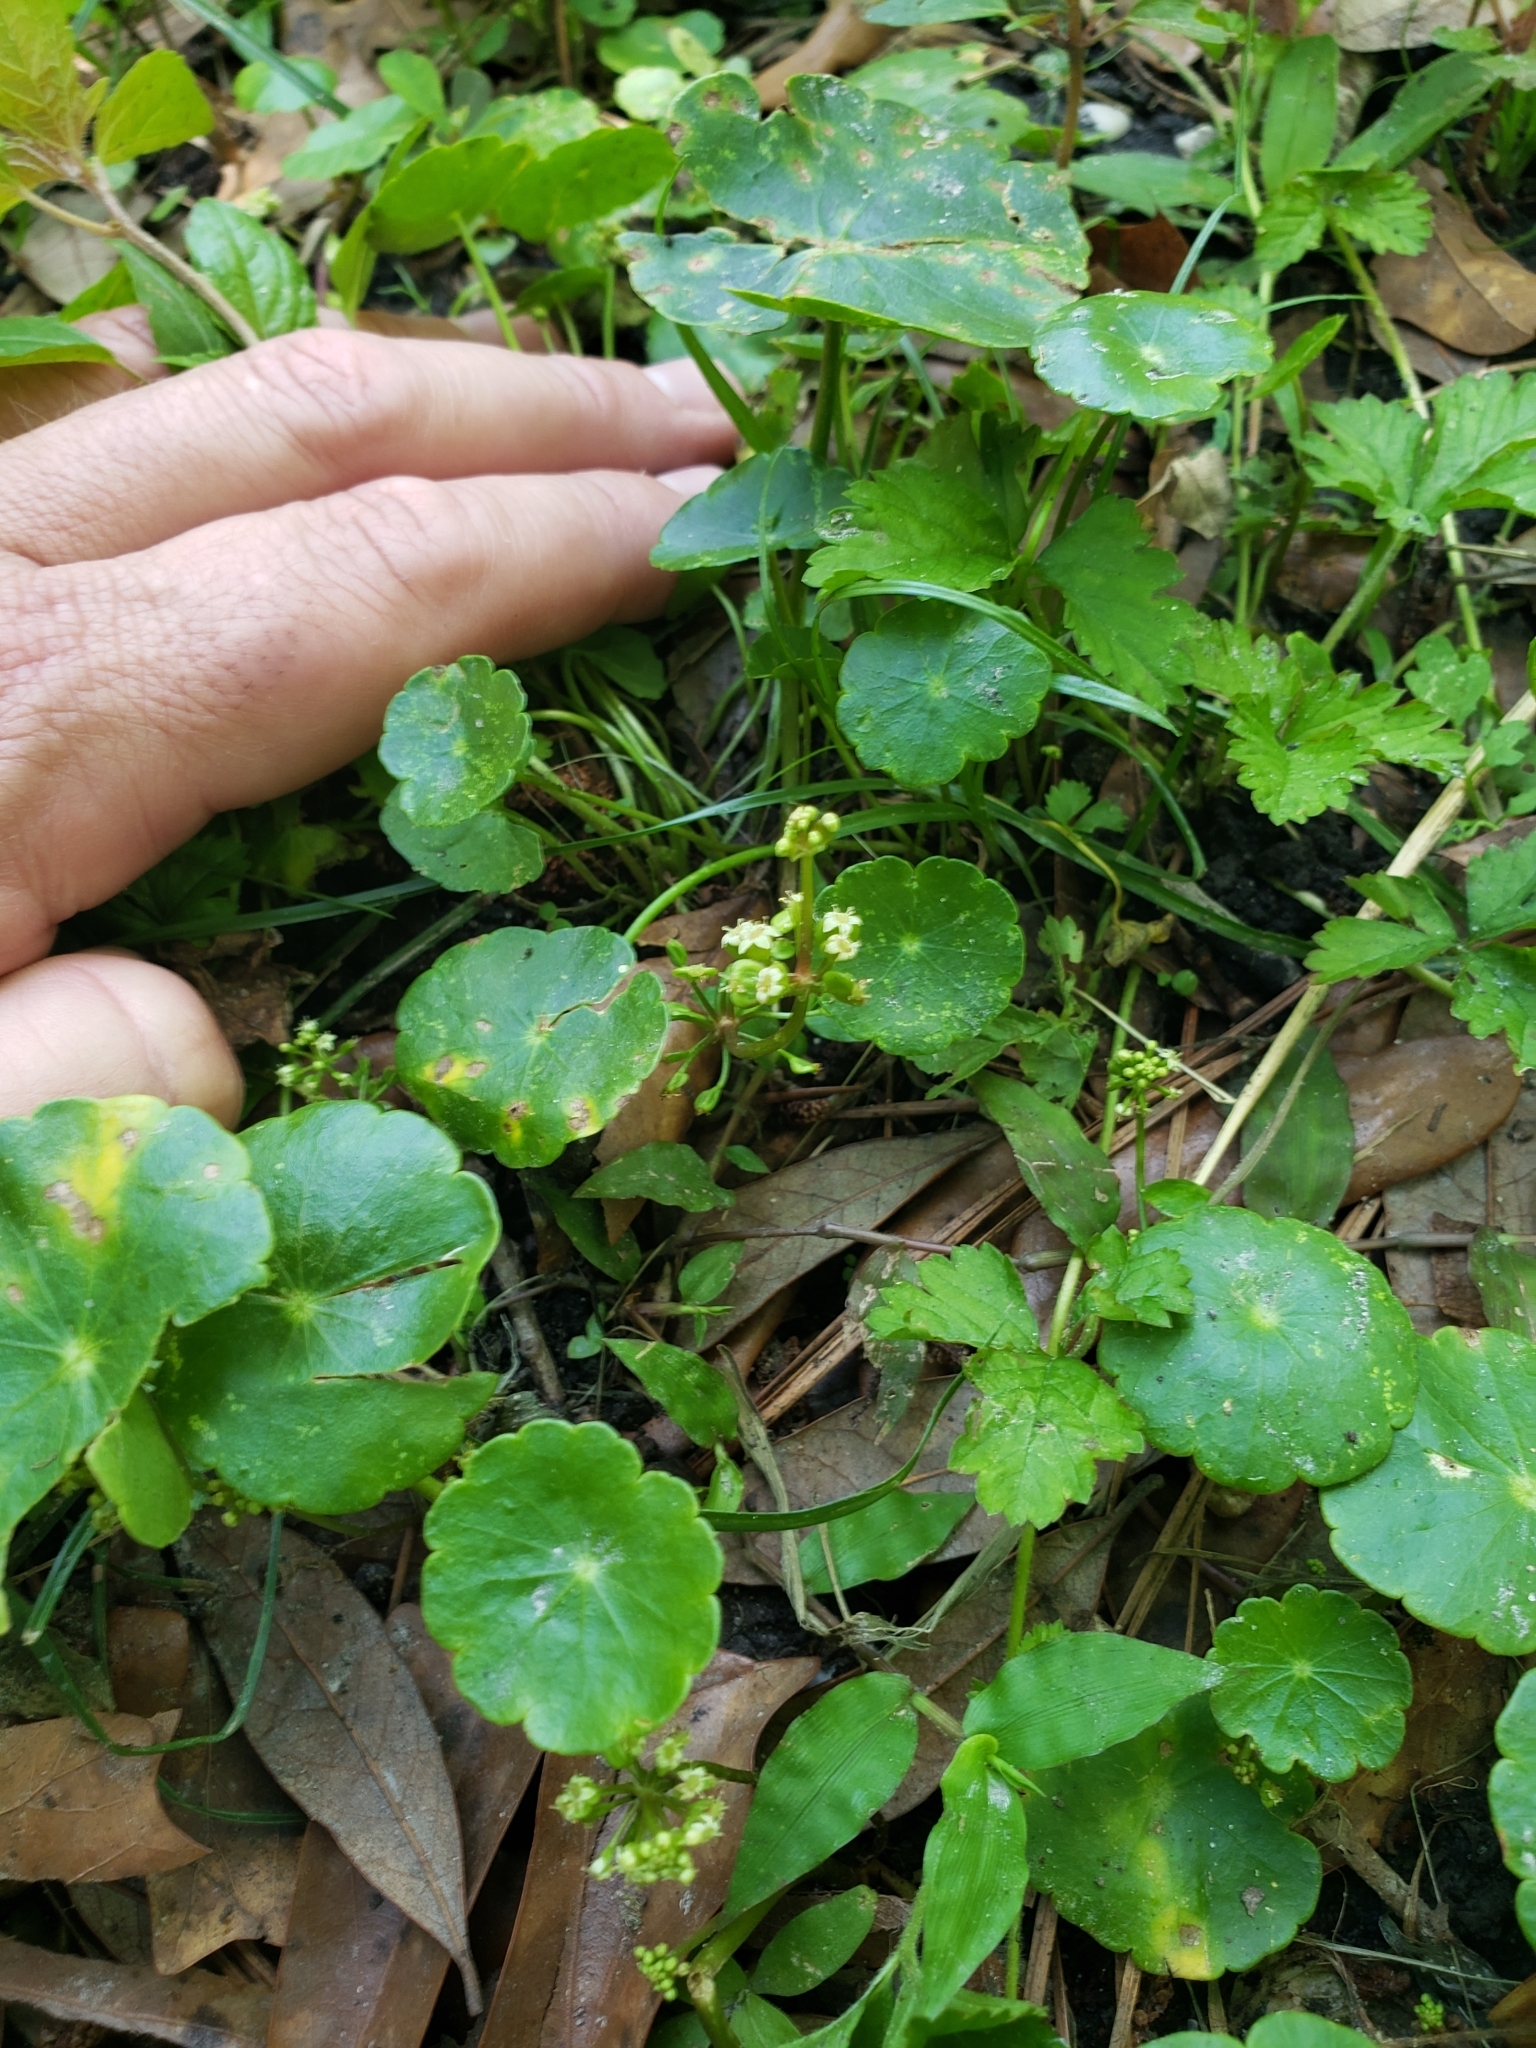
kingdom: Plantae
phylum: Tracheophyta
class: Magnoliopsida
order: Apiales
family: Araliaceae
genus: Hydrocotyle
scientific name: Hydrocotyle prolifera
